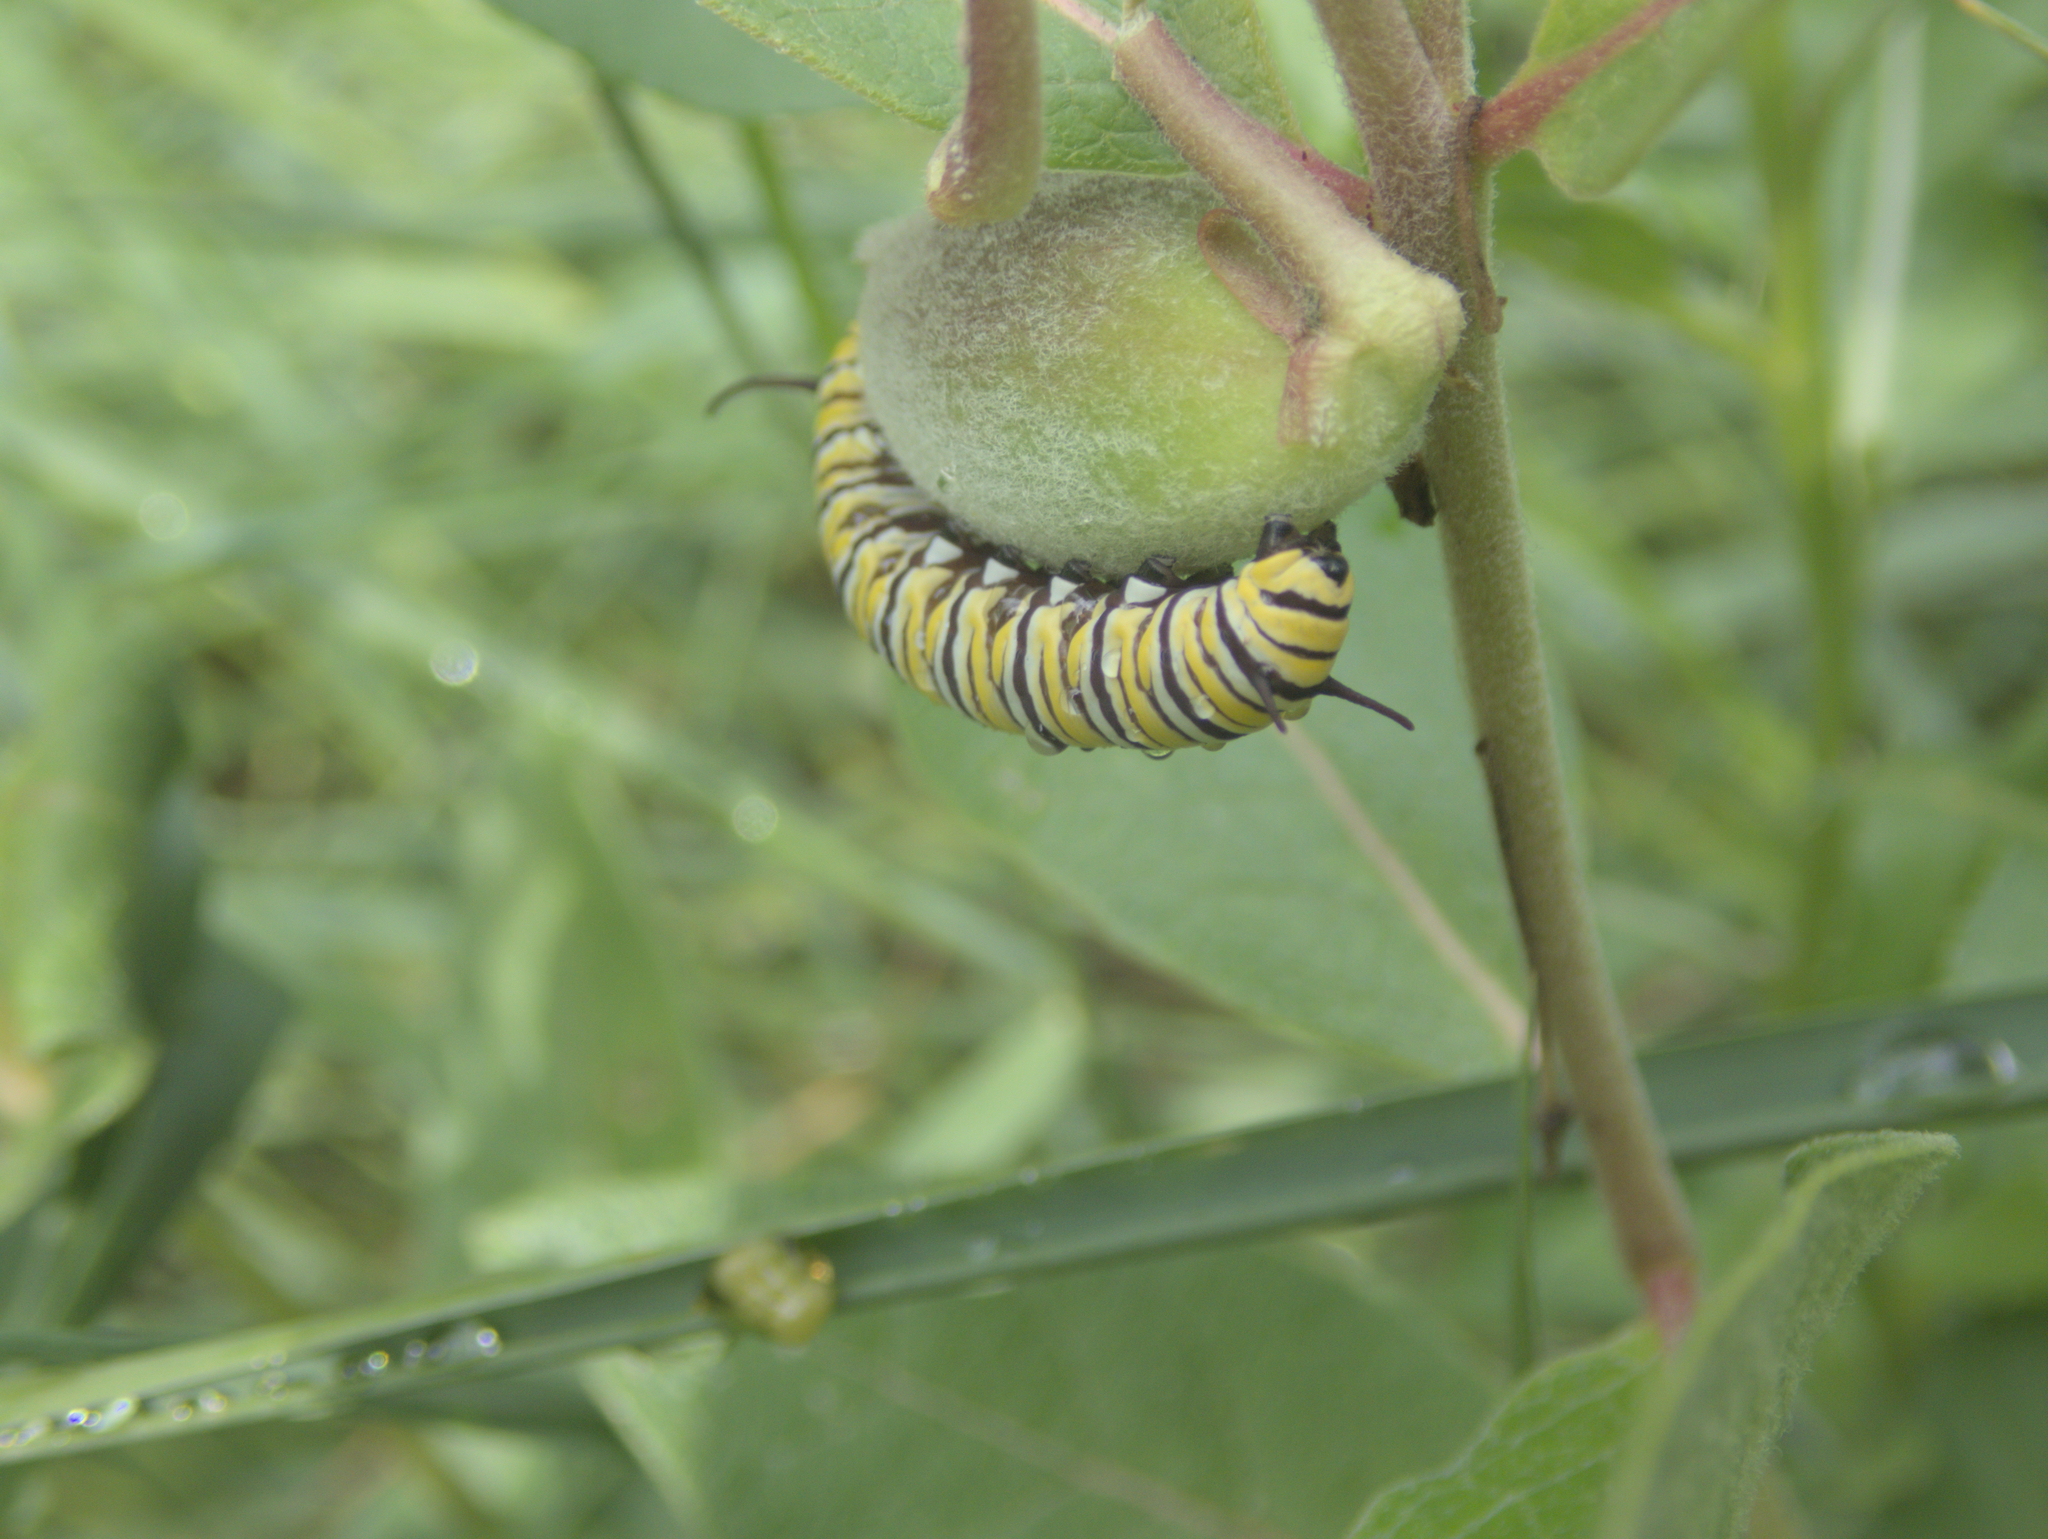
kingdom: Animalia
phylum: Arthropoda
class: Insecta
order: Lepidoptera
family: Nymphalidae
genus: Danaus
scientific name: Danaus plexippus
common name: Monarch
